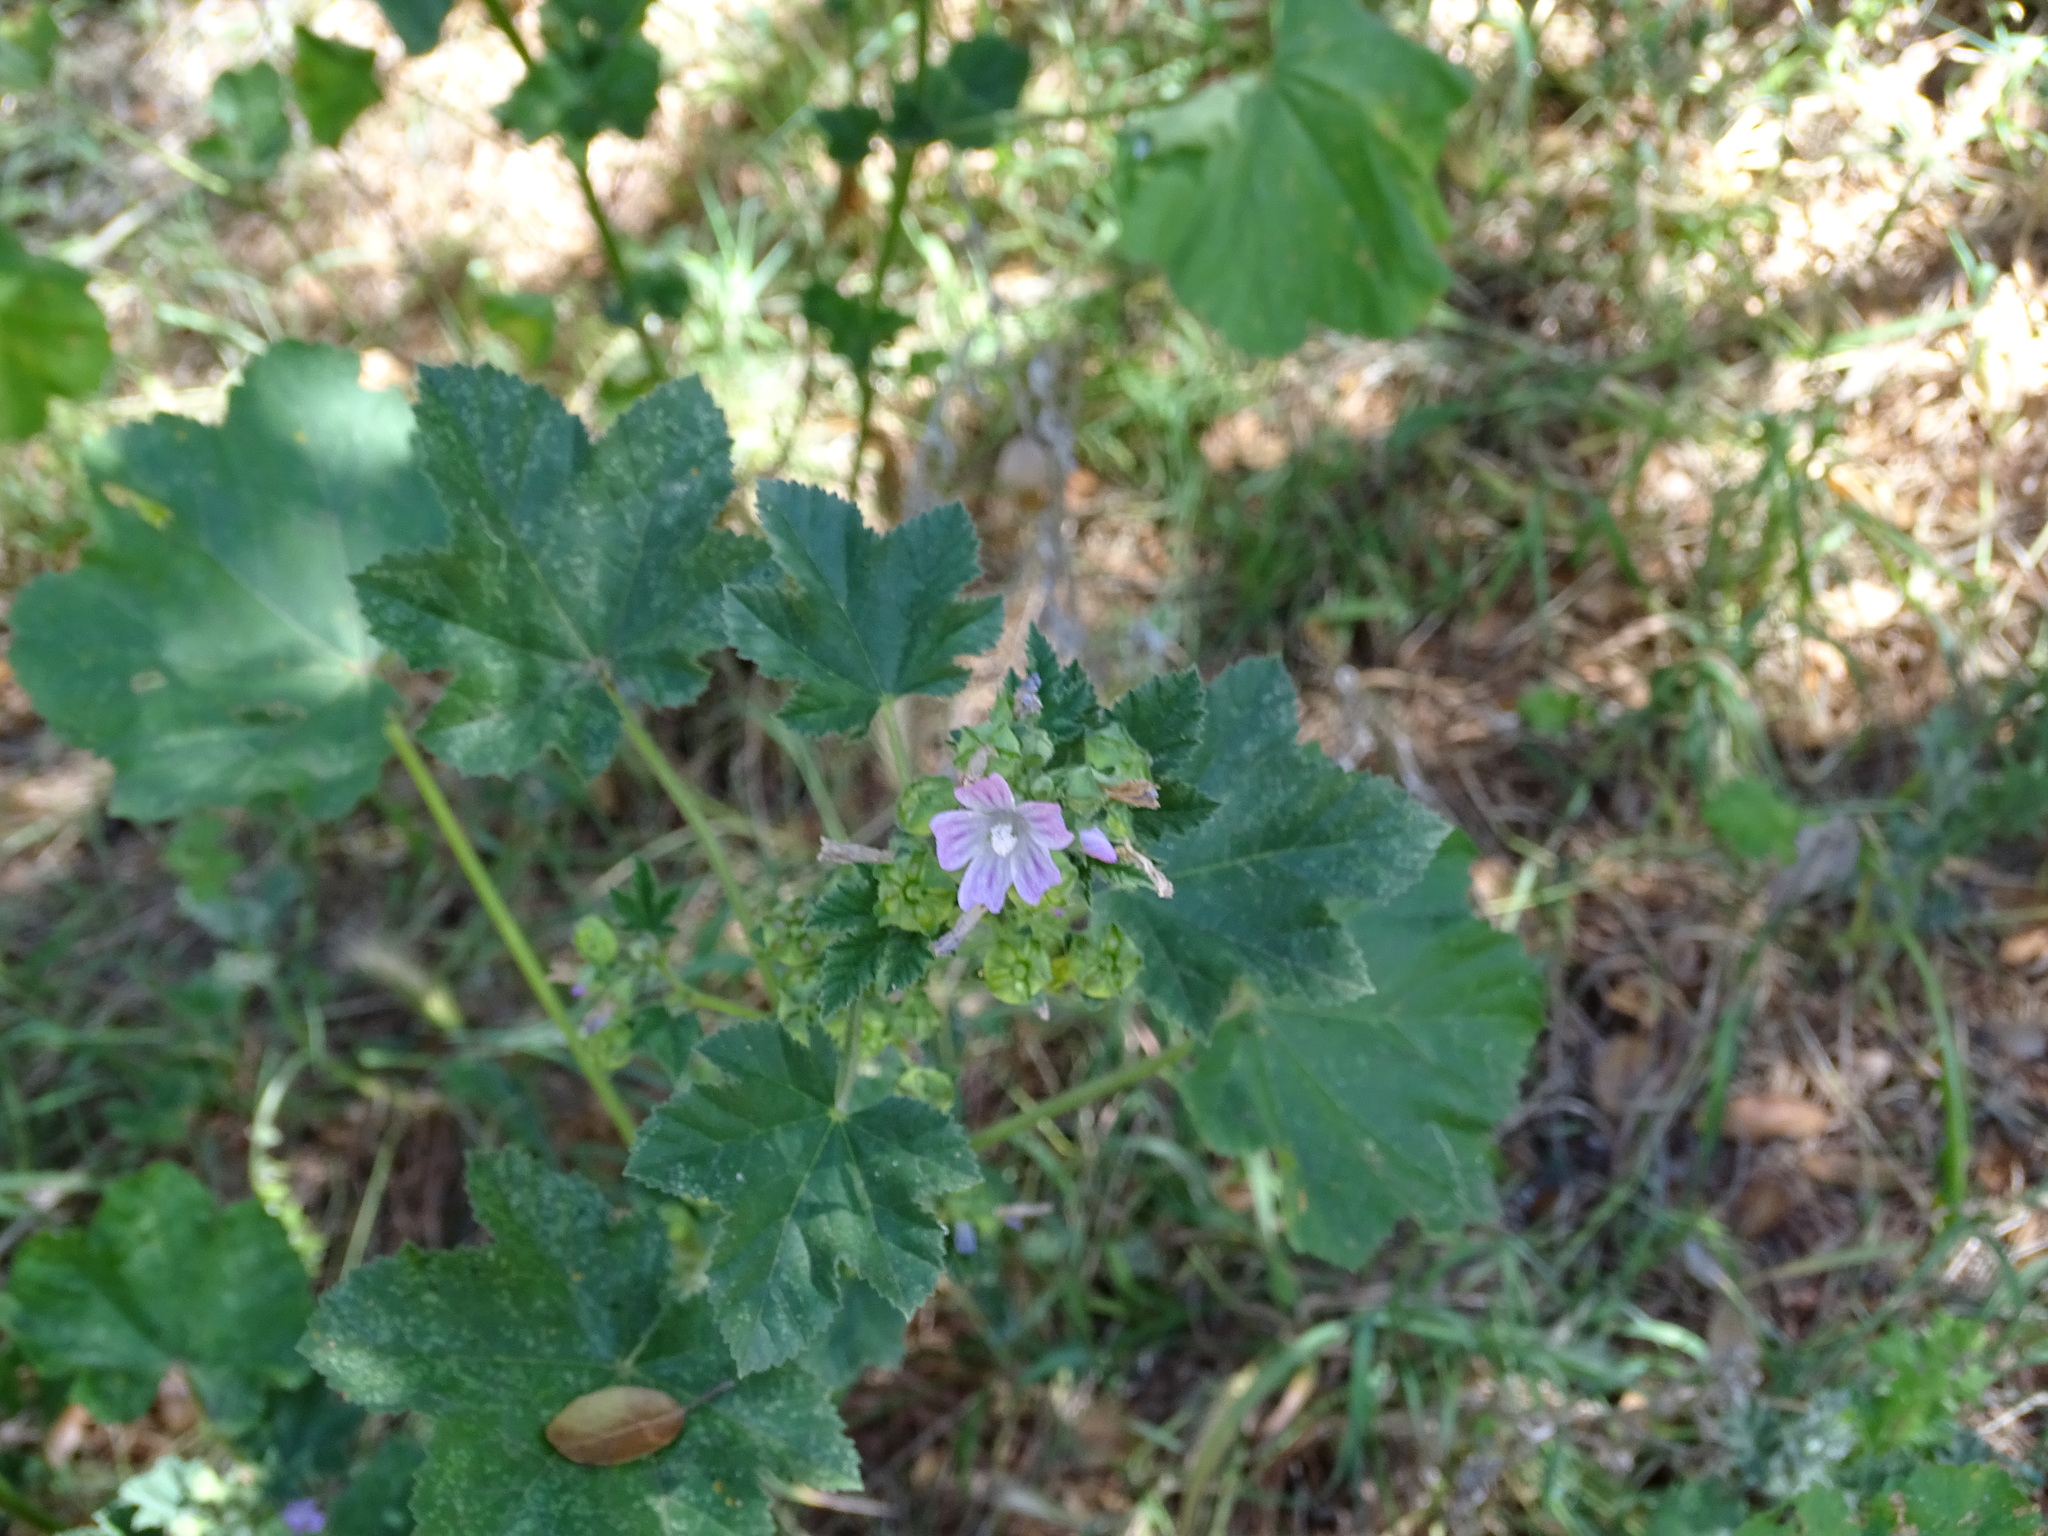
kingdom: Plantae
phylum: Tracheophyta
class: Magnoliopsida
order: Malvales
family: Malvaceae
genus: Malva
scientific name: Malva multiflora
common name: Cheeseweed
